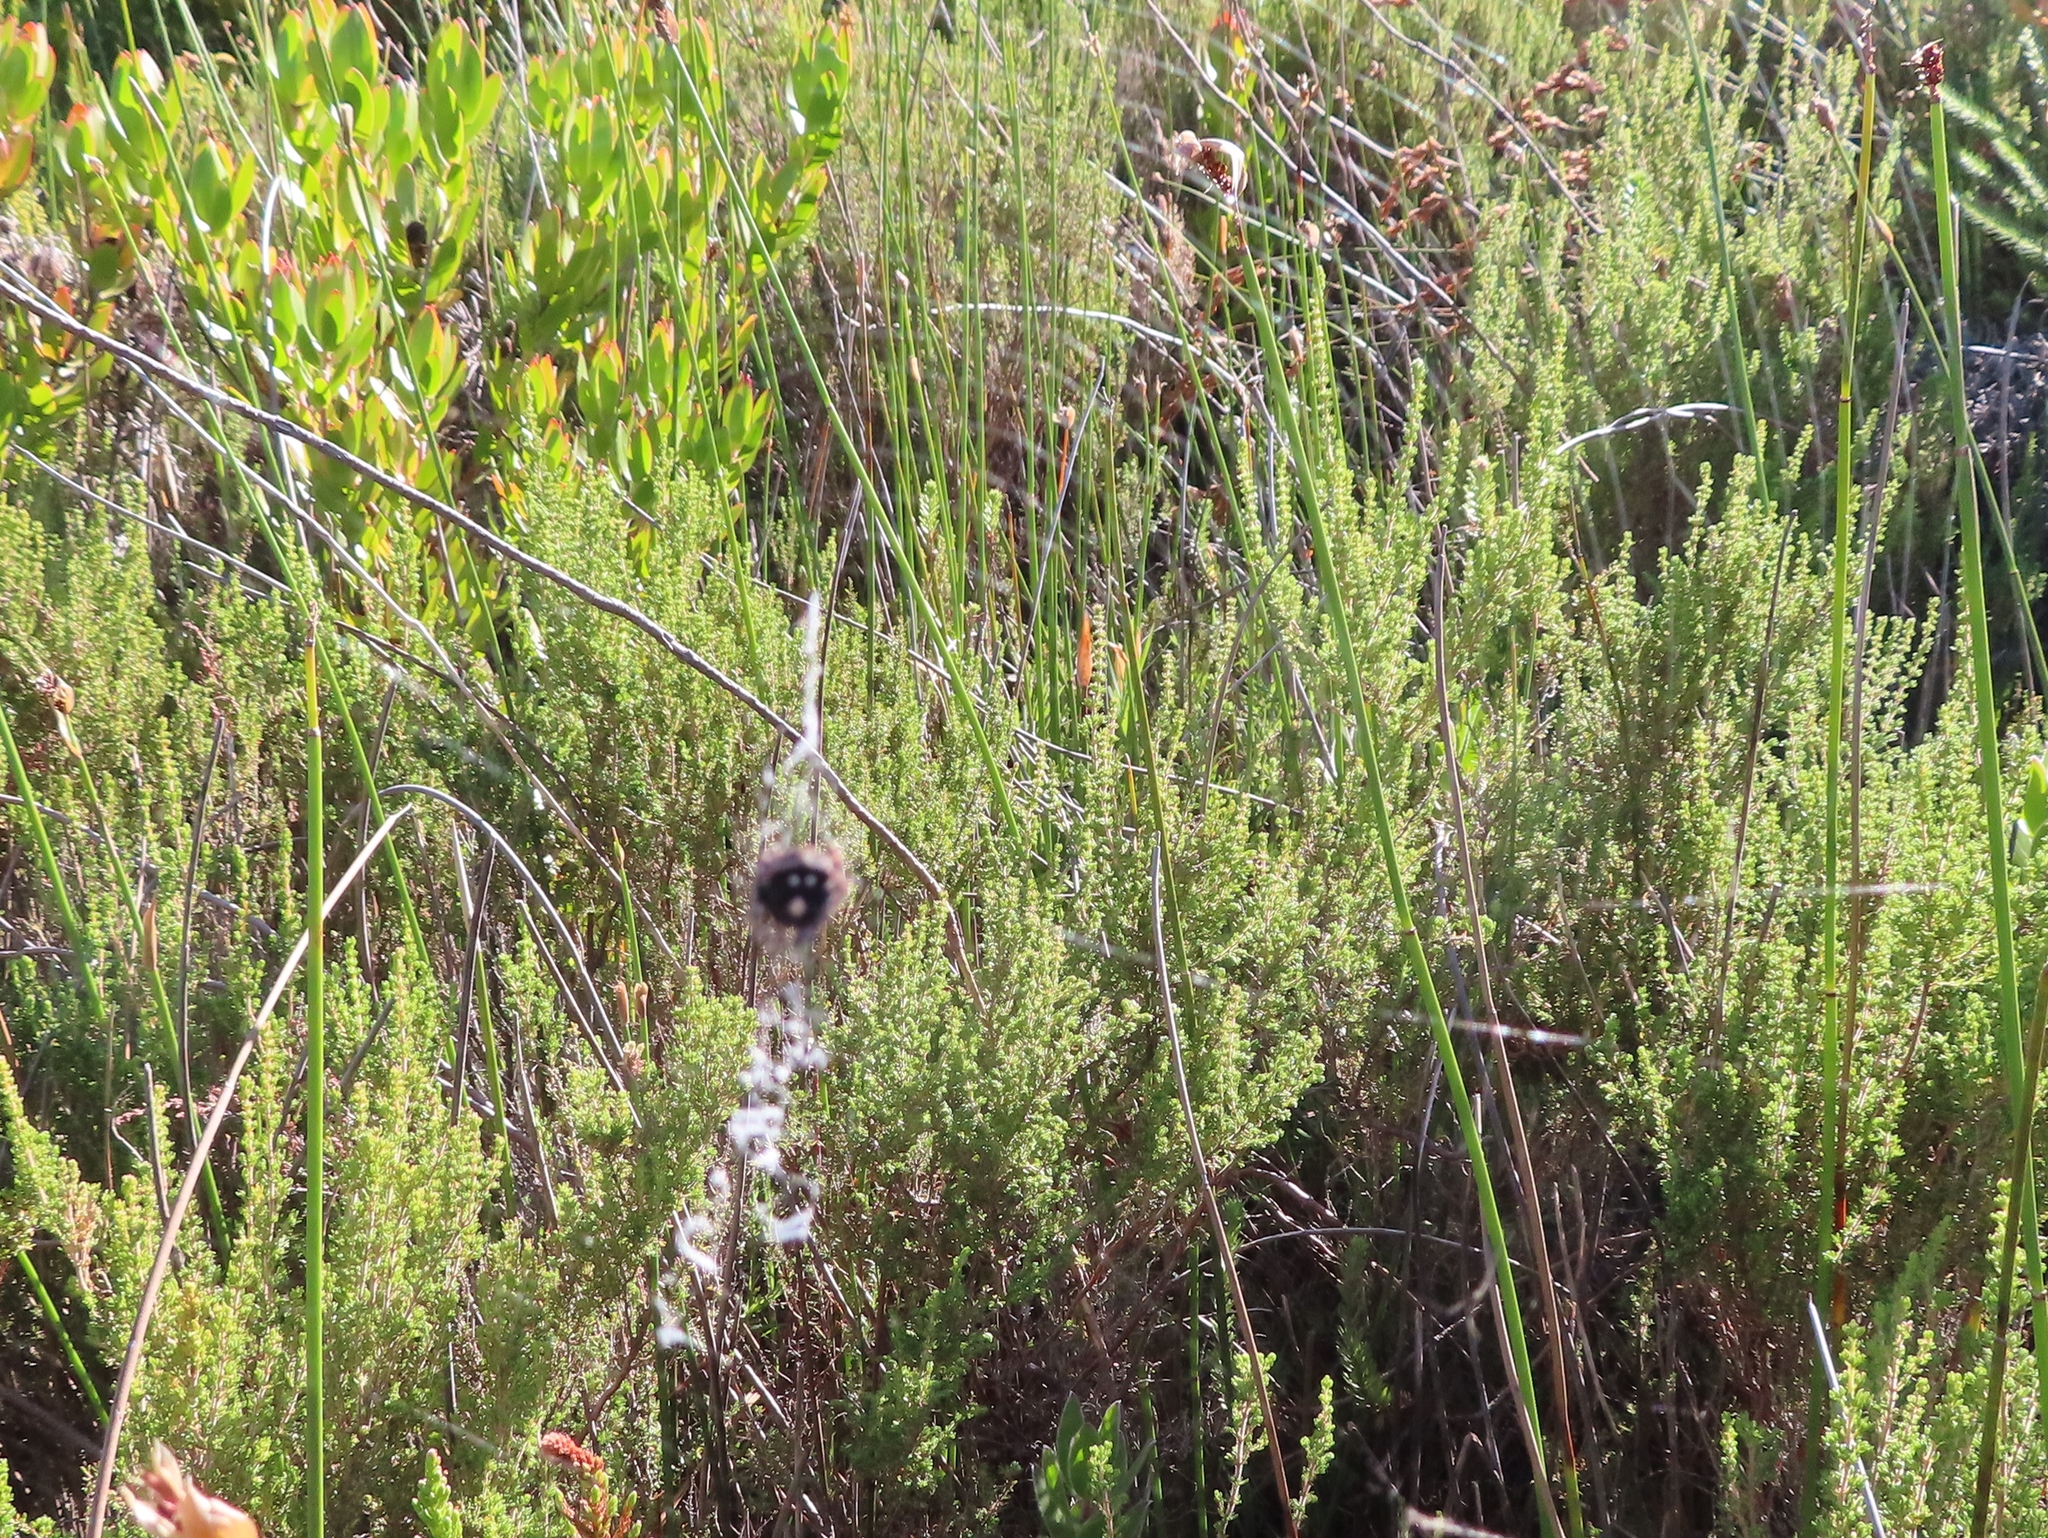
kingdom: Animalia
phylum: Arthropoda
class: Arachnida
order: Araneae
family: Araneidae
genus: Caerostris
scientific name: Caerostris sexcuspidata
